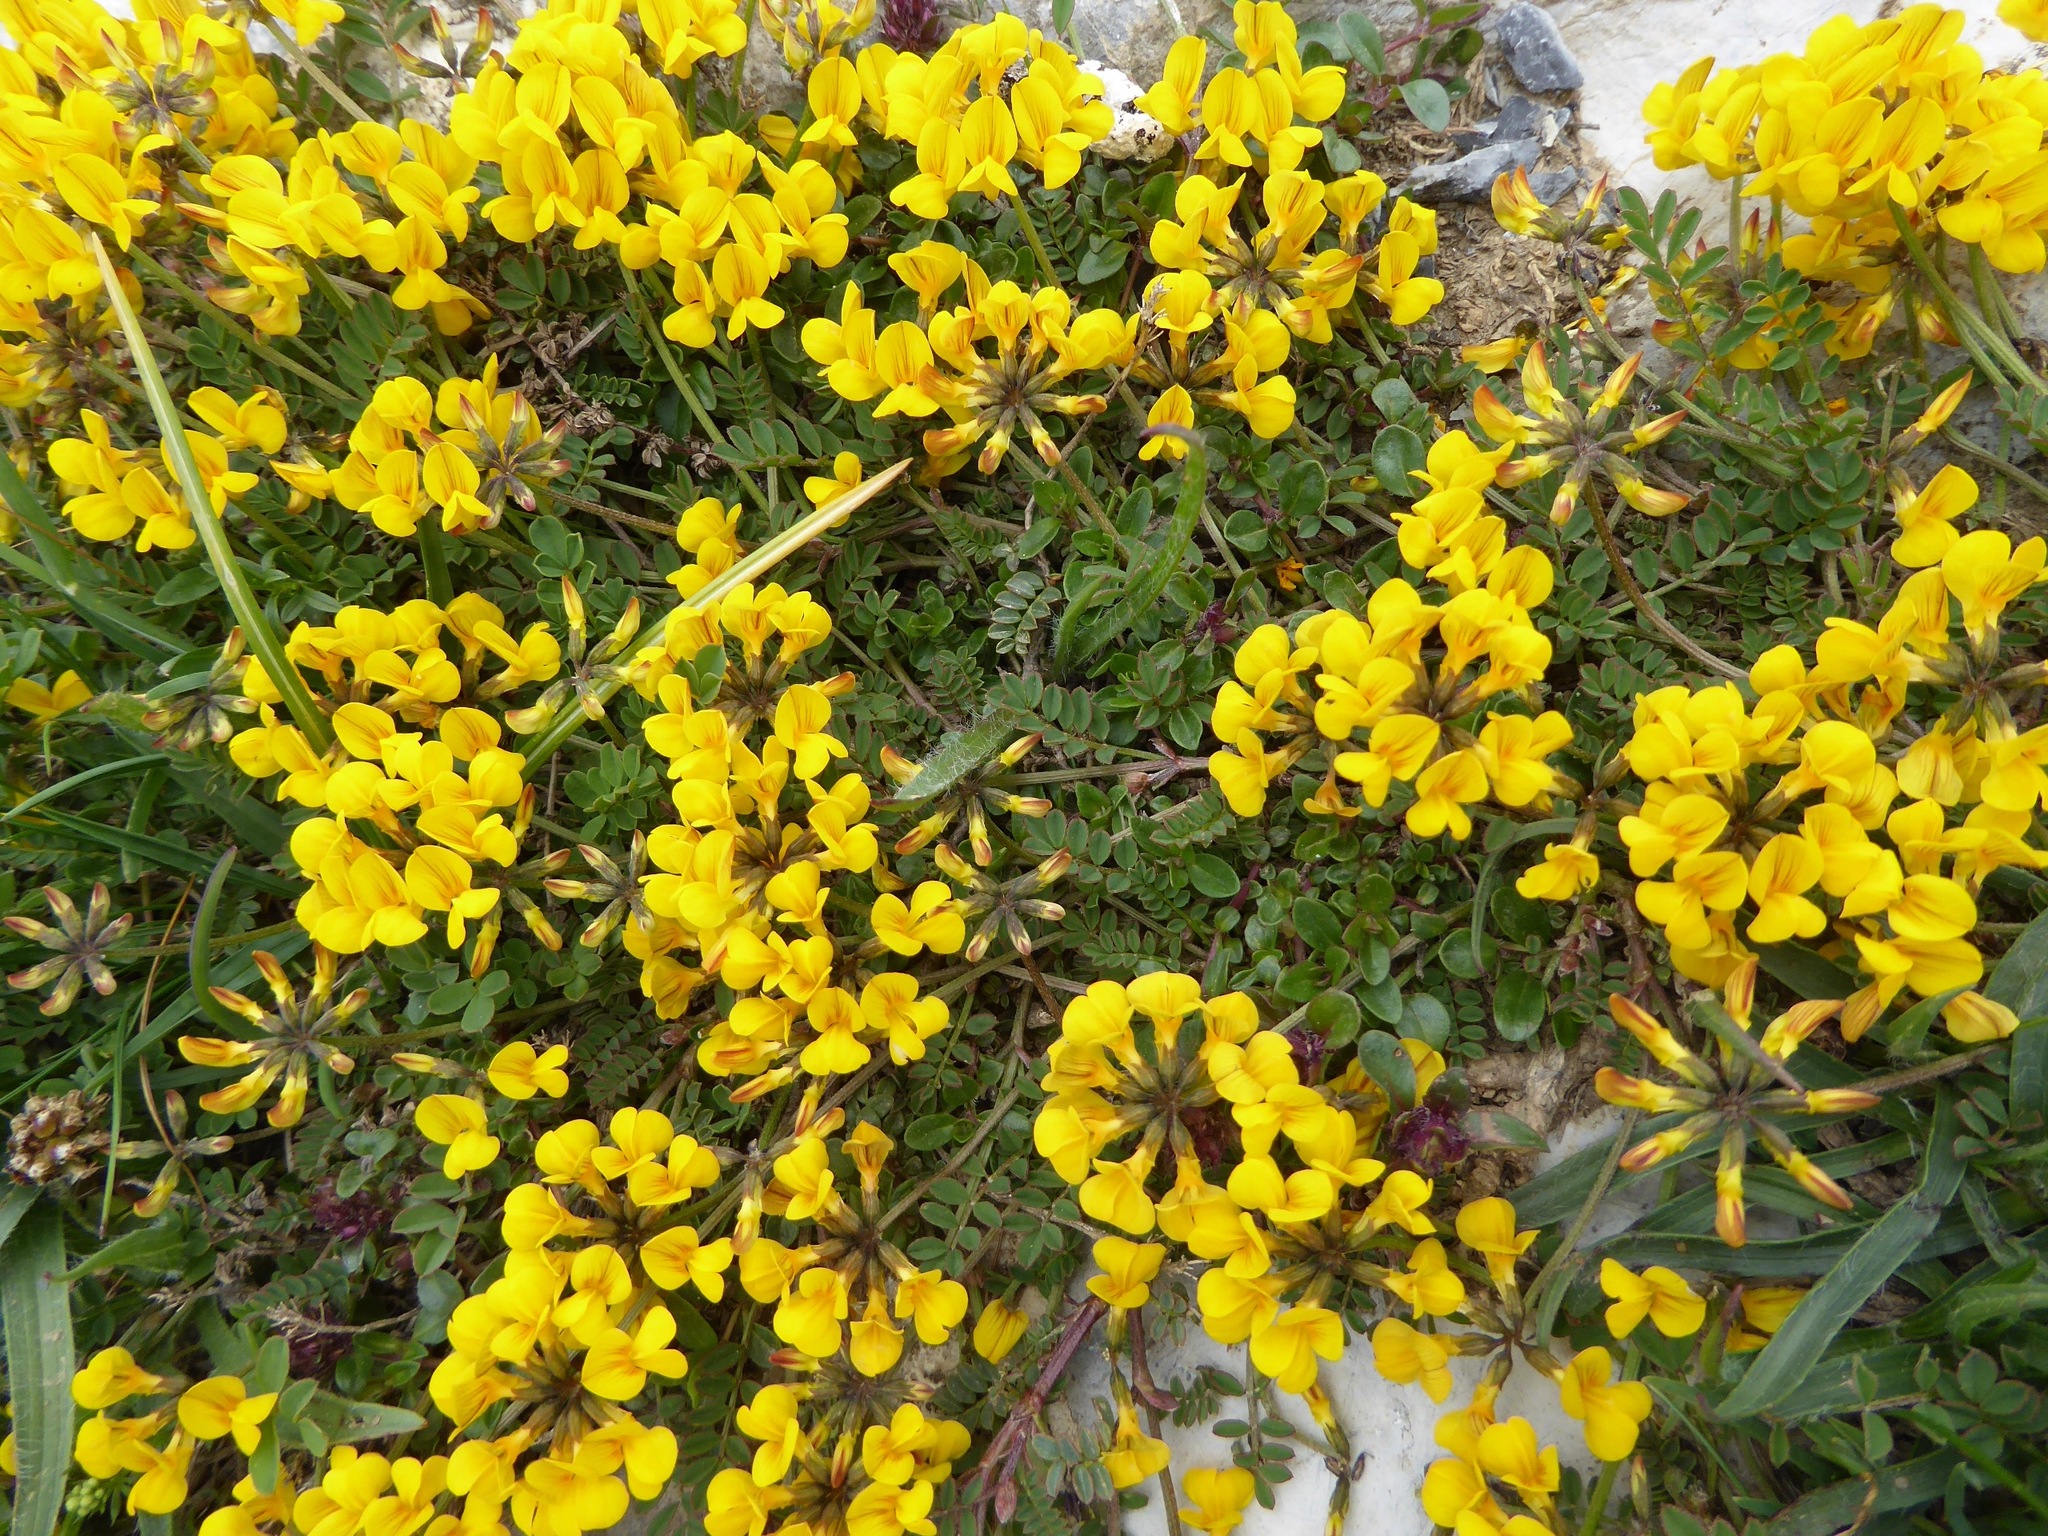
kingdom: Plantae
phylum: Tracheophyta
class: Magnoliopsida
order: Fabales
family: Fabaceae
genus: Hippocrepis
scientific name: Hippocrepis comosa
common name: Horseshoe vetch
